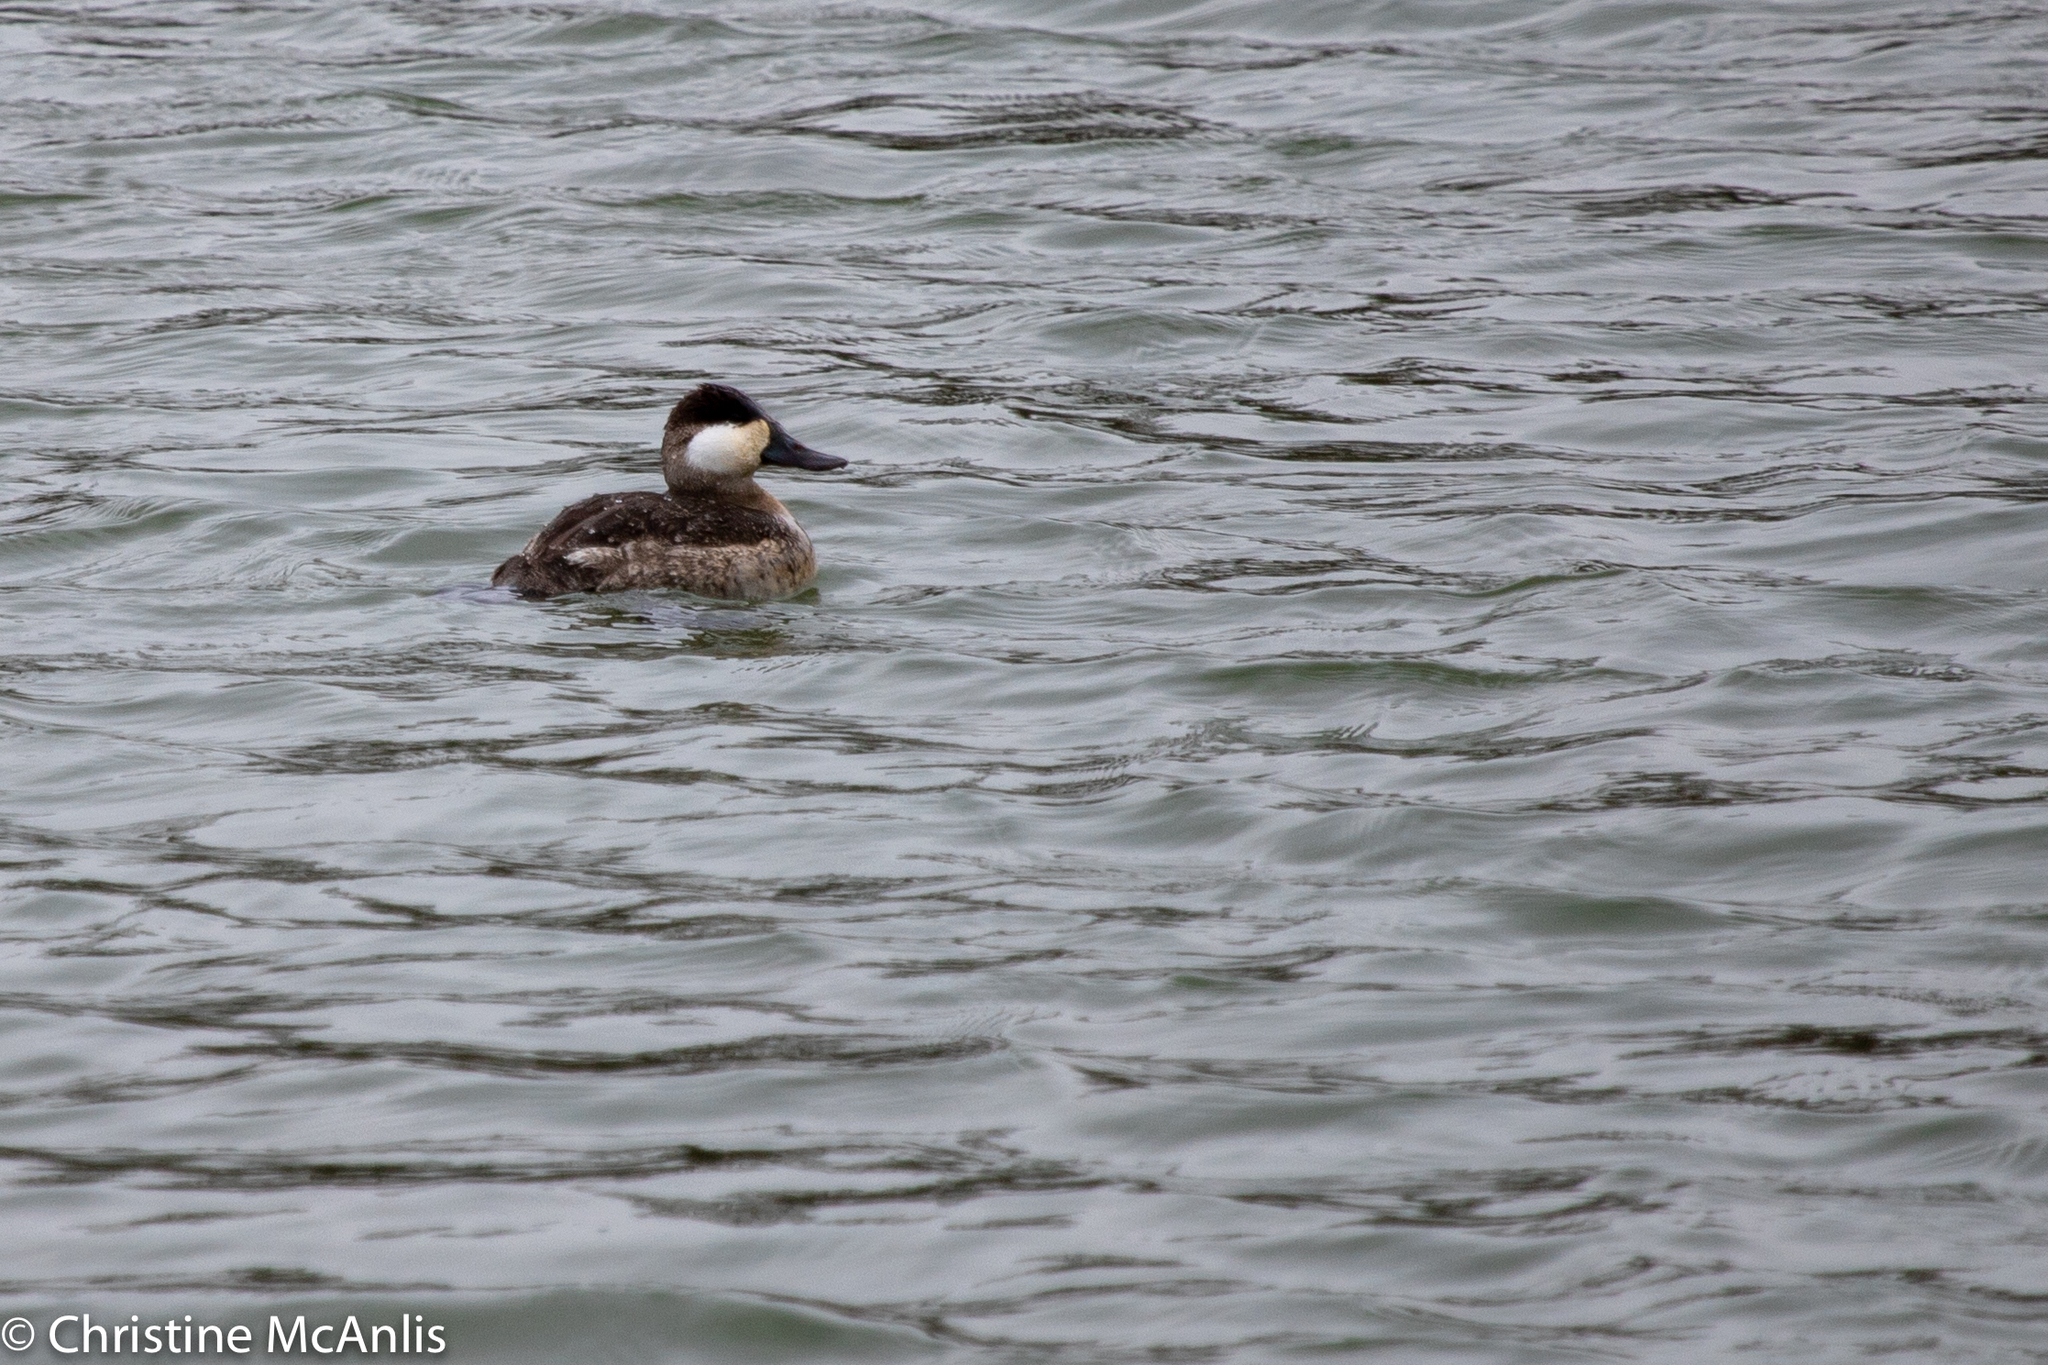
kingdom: Animalia
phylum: Chordata
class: Aves
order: Anseriformes
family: Anatidae
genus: Oxyura
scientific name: Oxyura jamaicensis
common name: Ruddy duck
